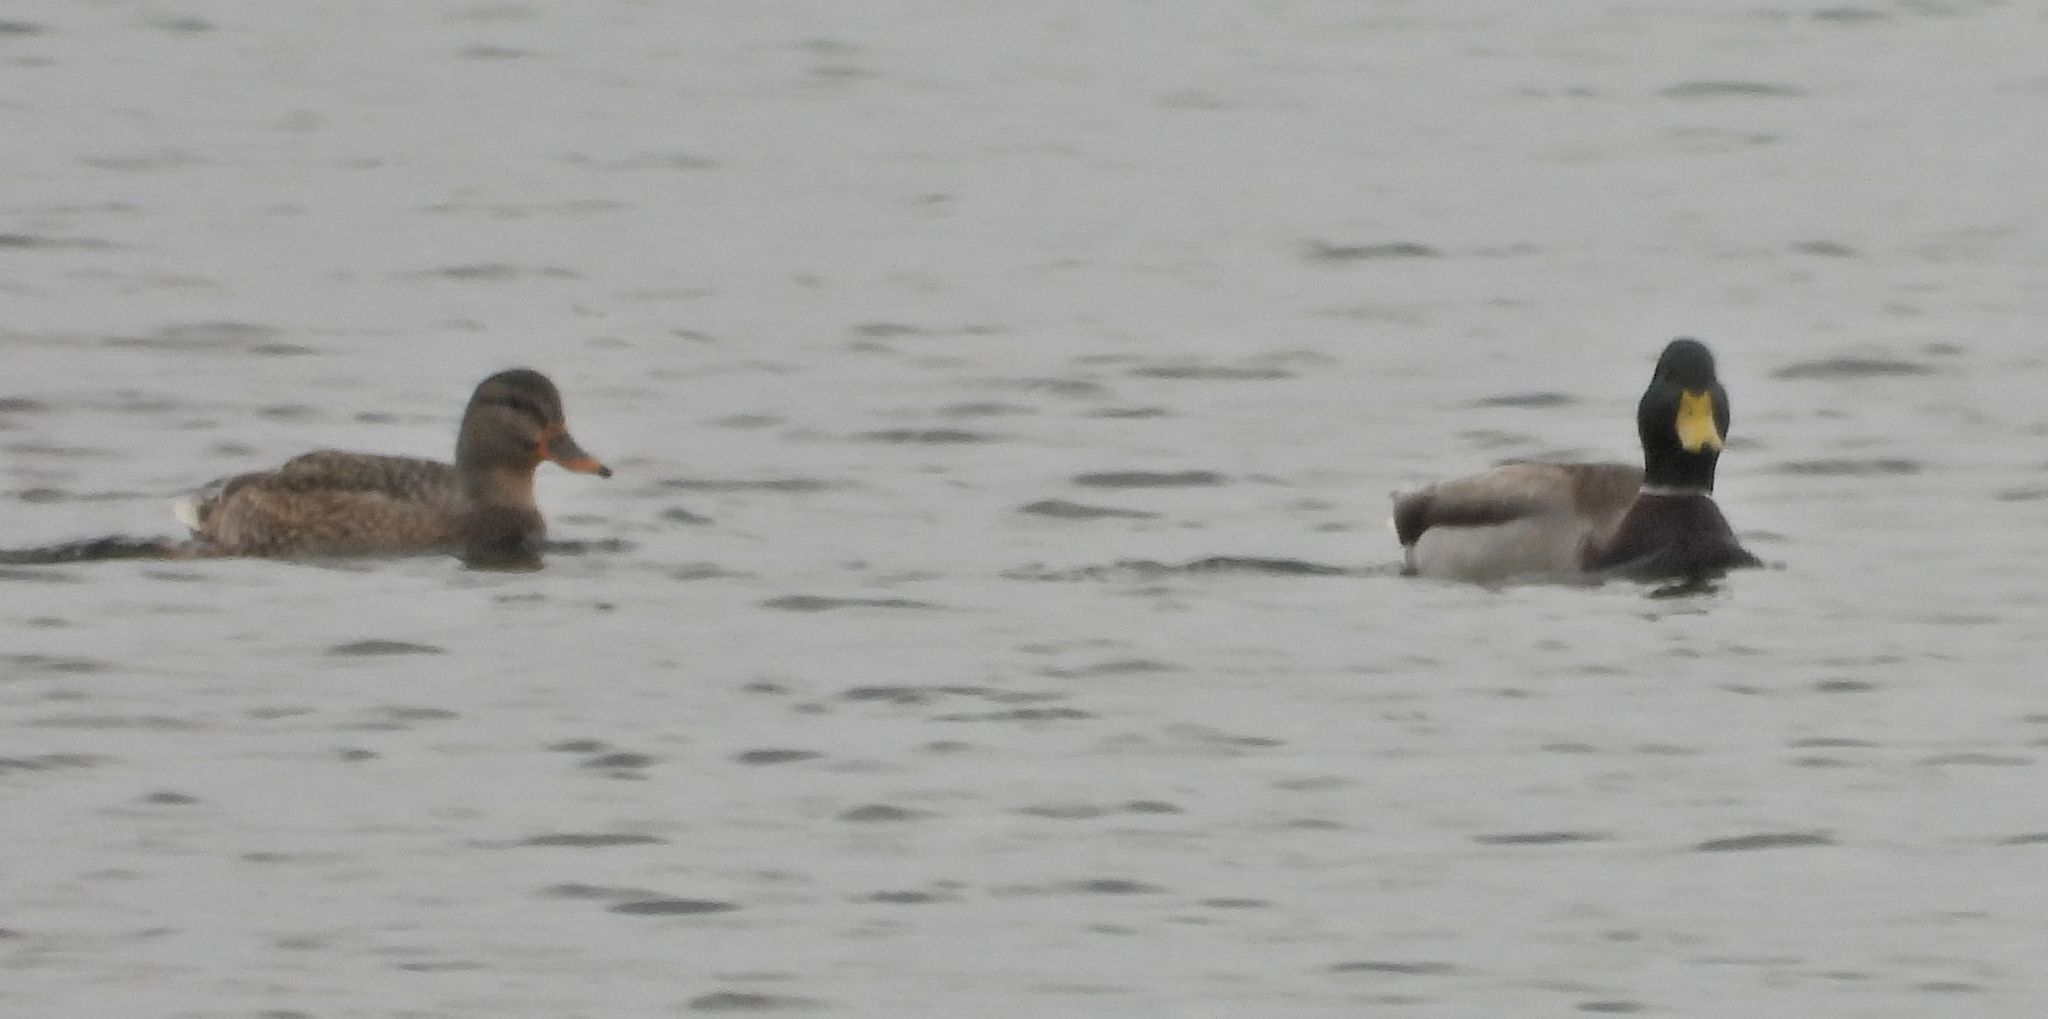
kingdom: Animalia
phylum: Chordata
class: Aves
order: Anseriformes
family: Anatidae
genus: Anas
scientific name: Anas platyrhynchos
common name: Mallard
